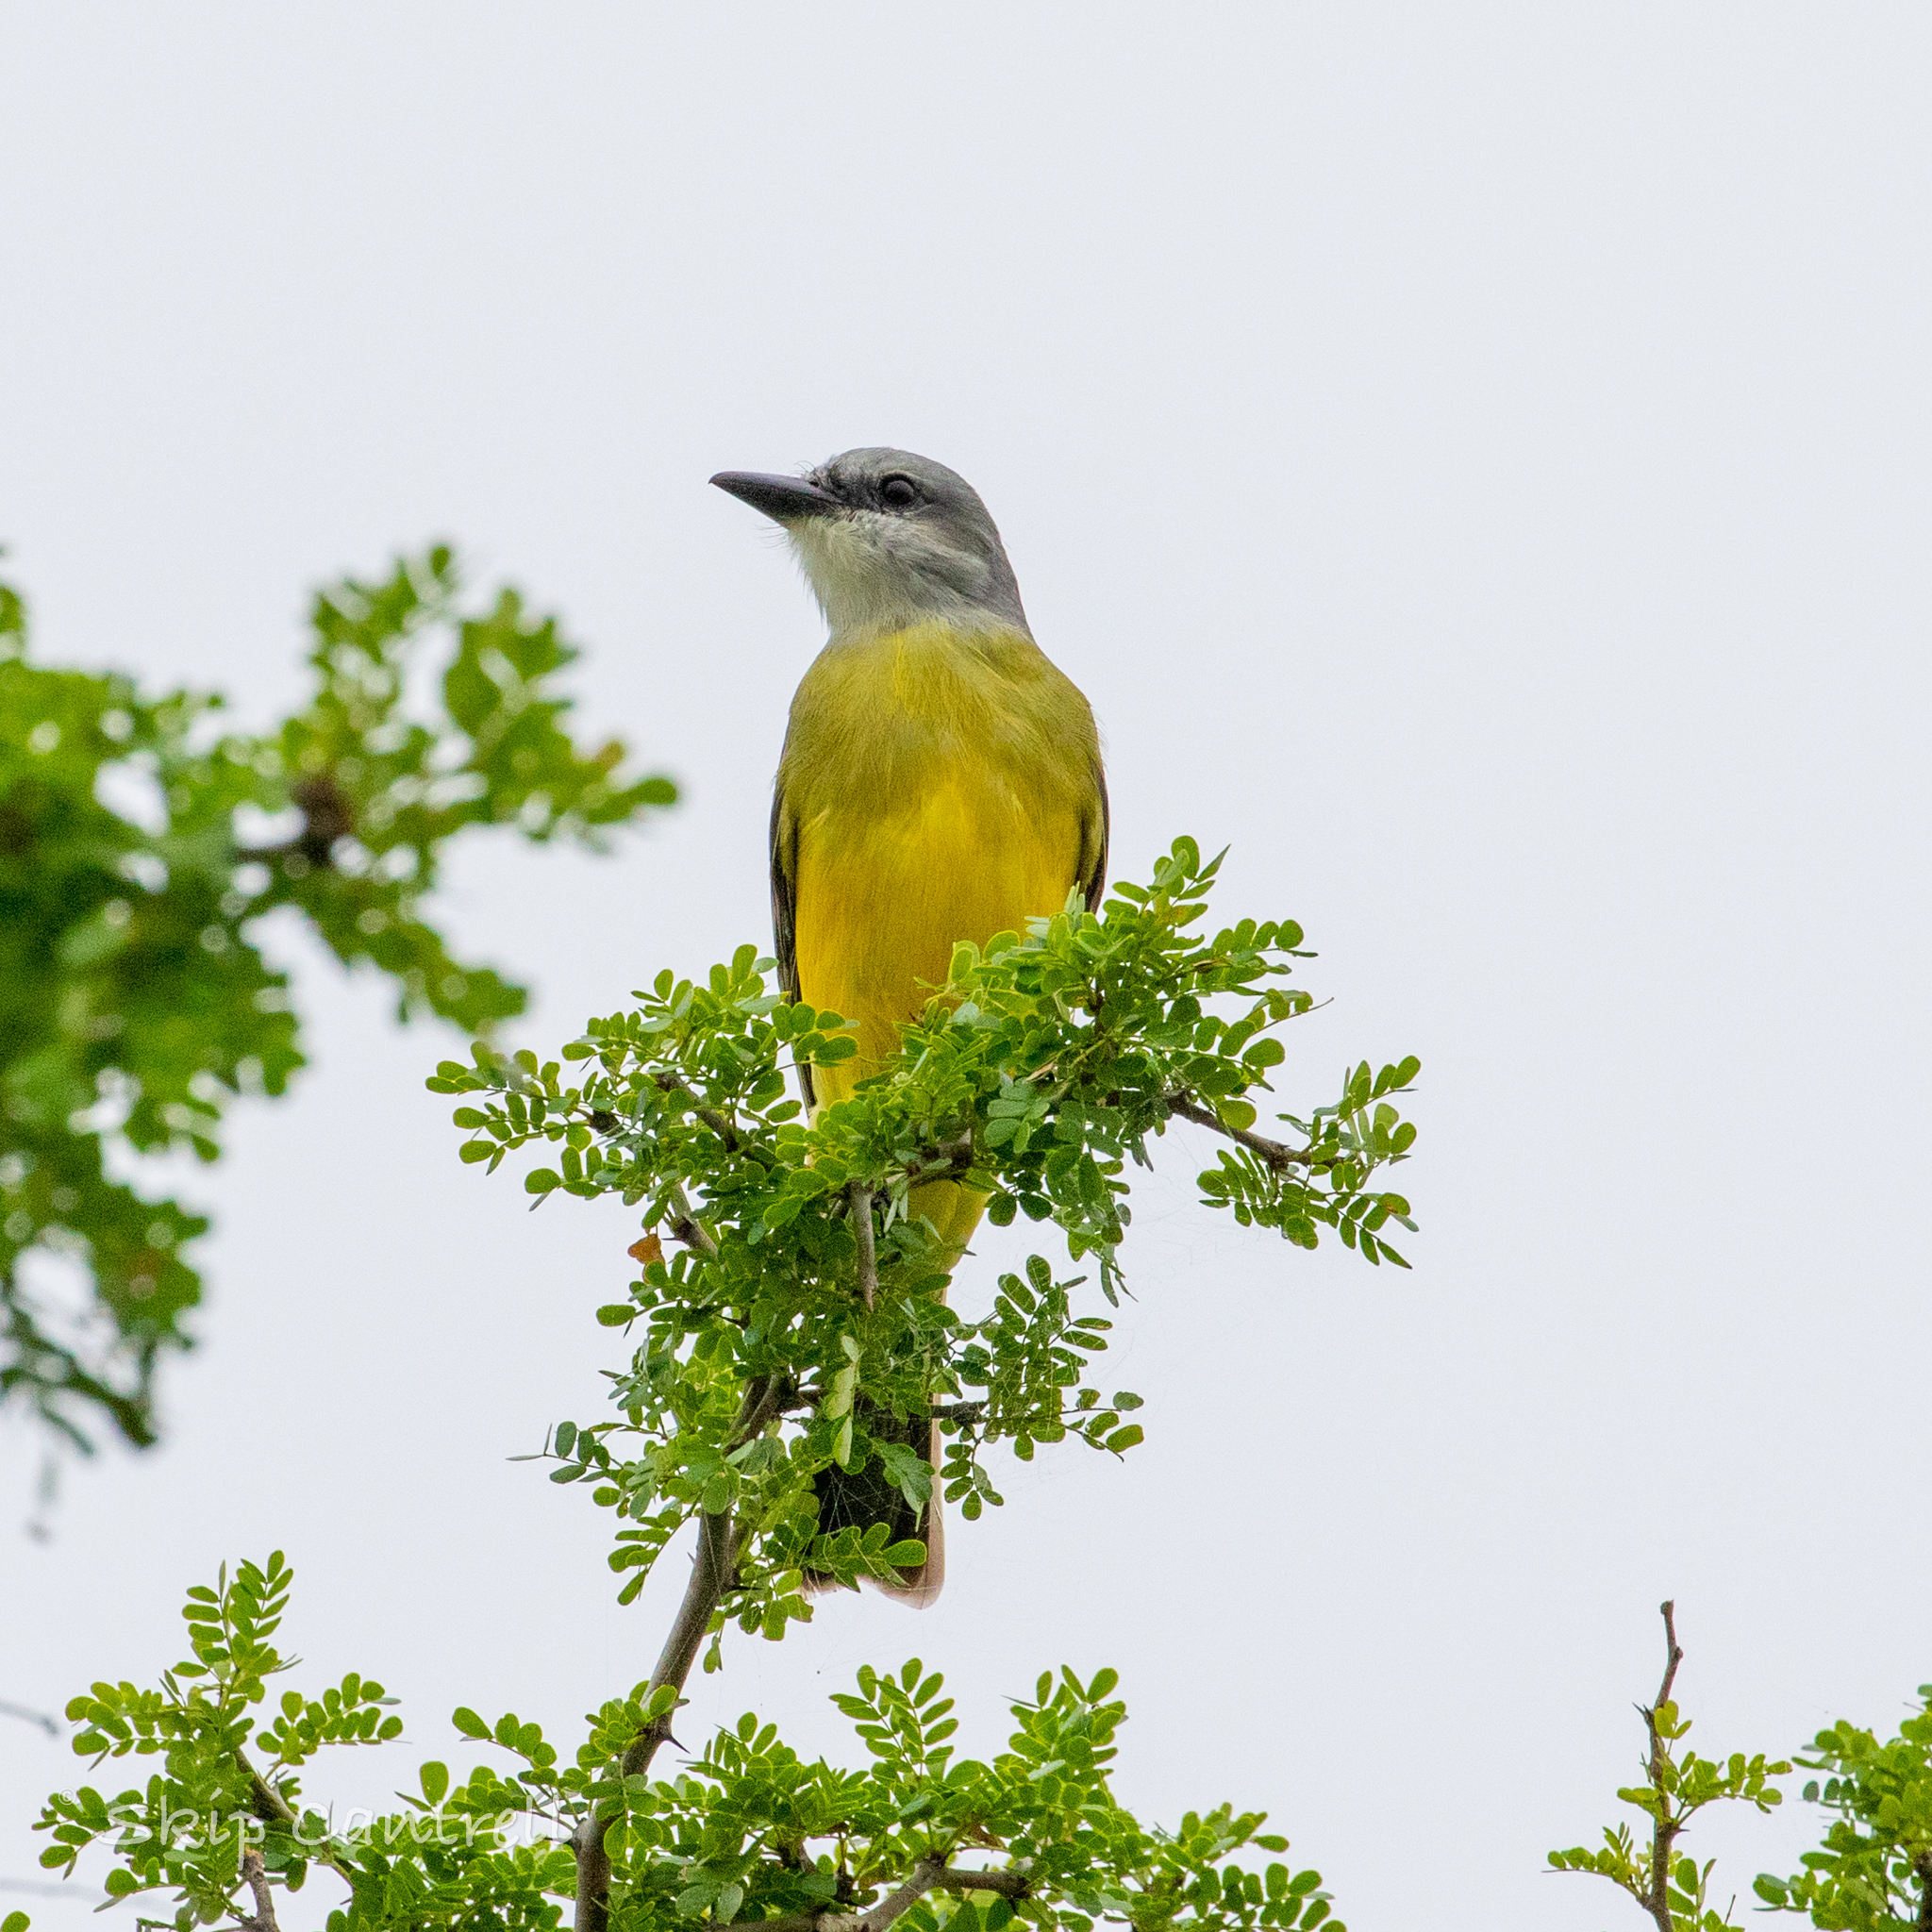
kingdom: Animalia
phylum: Chordata
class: Aves
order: Passeriformes
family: Tyrannidae
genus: Tyrannus
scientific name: Tyrannus melancholicus
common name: Tropical kingbird
